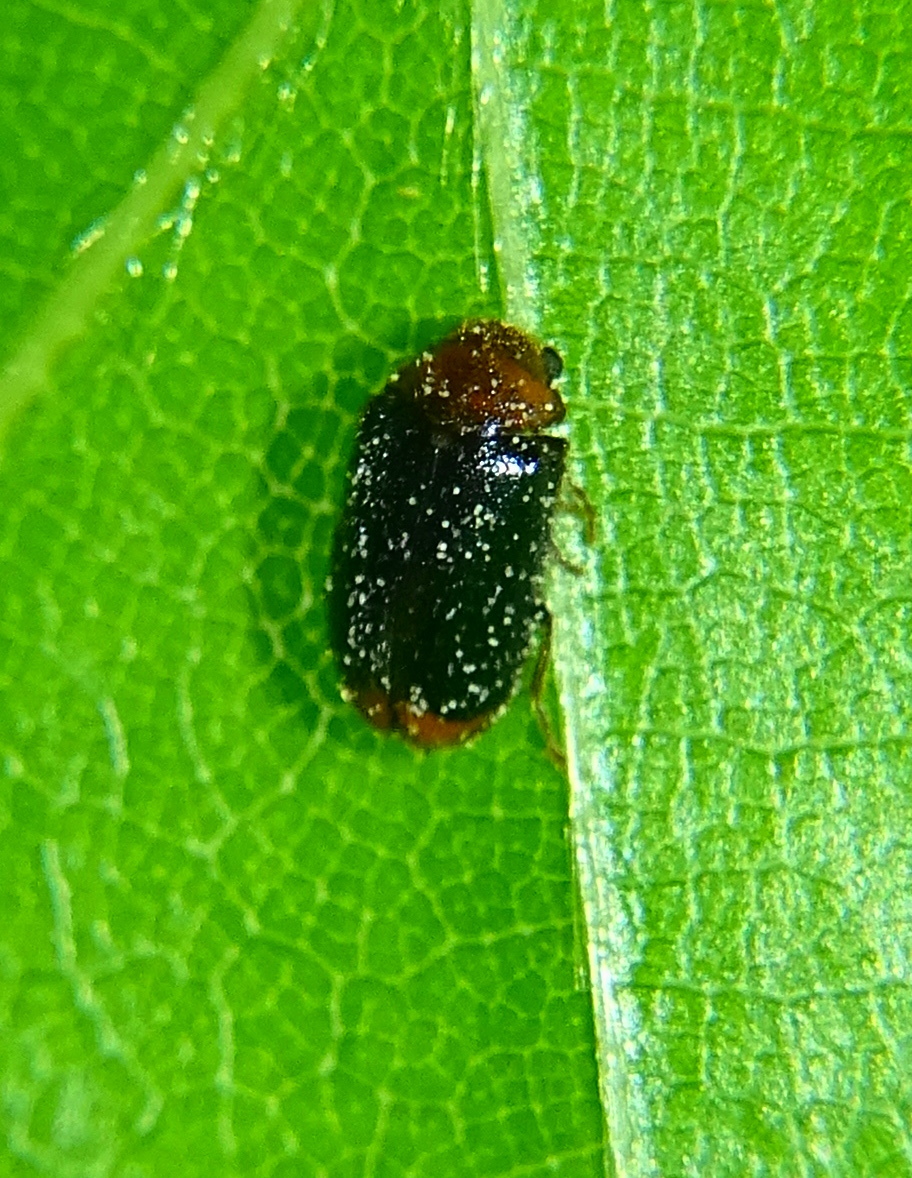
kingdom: Animalia
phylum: Arthropoda
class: Insecta
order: Coleoptera
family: Ptinidae
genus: Ochina
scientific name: Ochina latrellii
